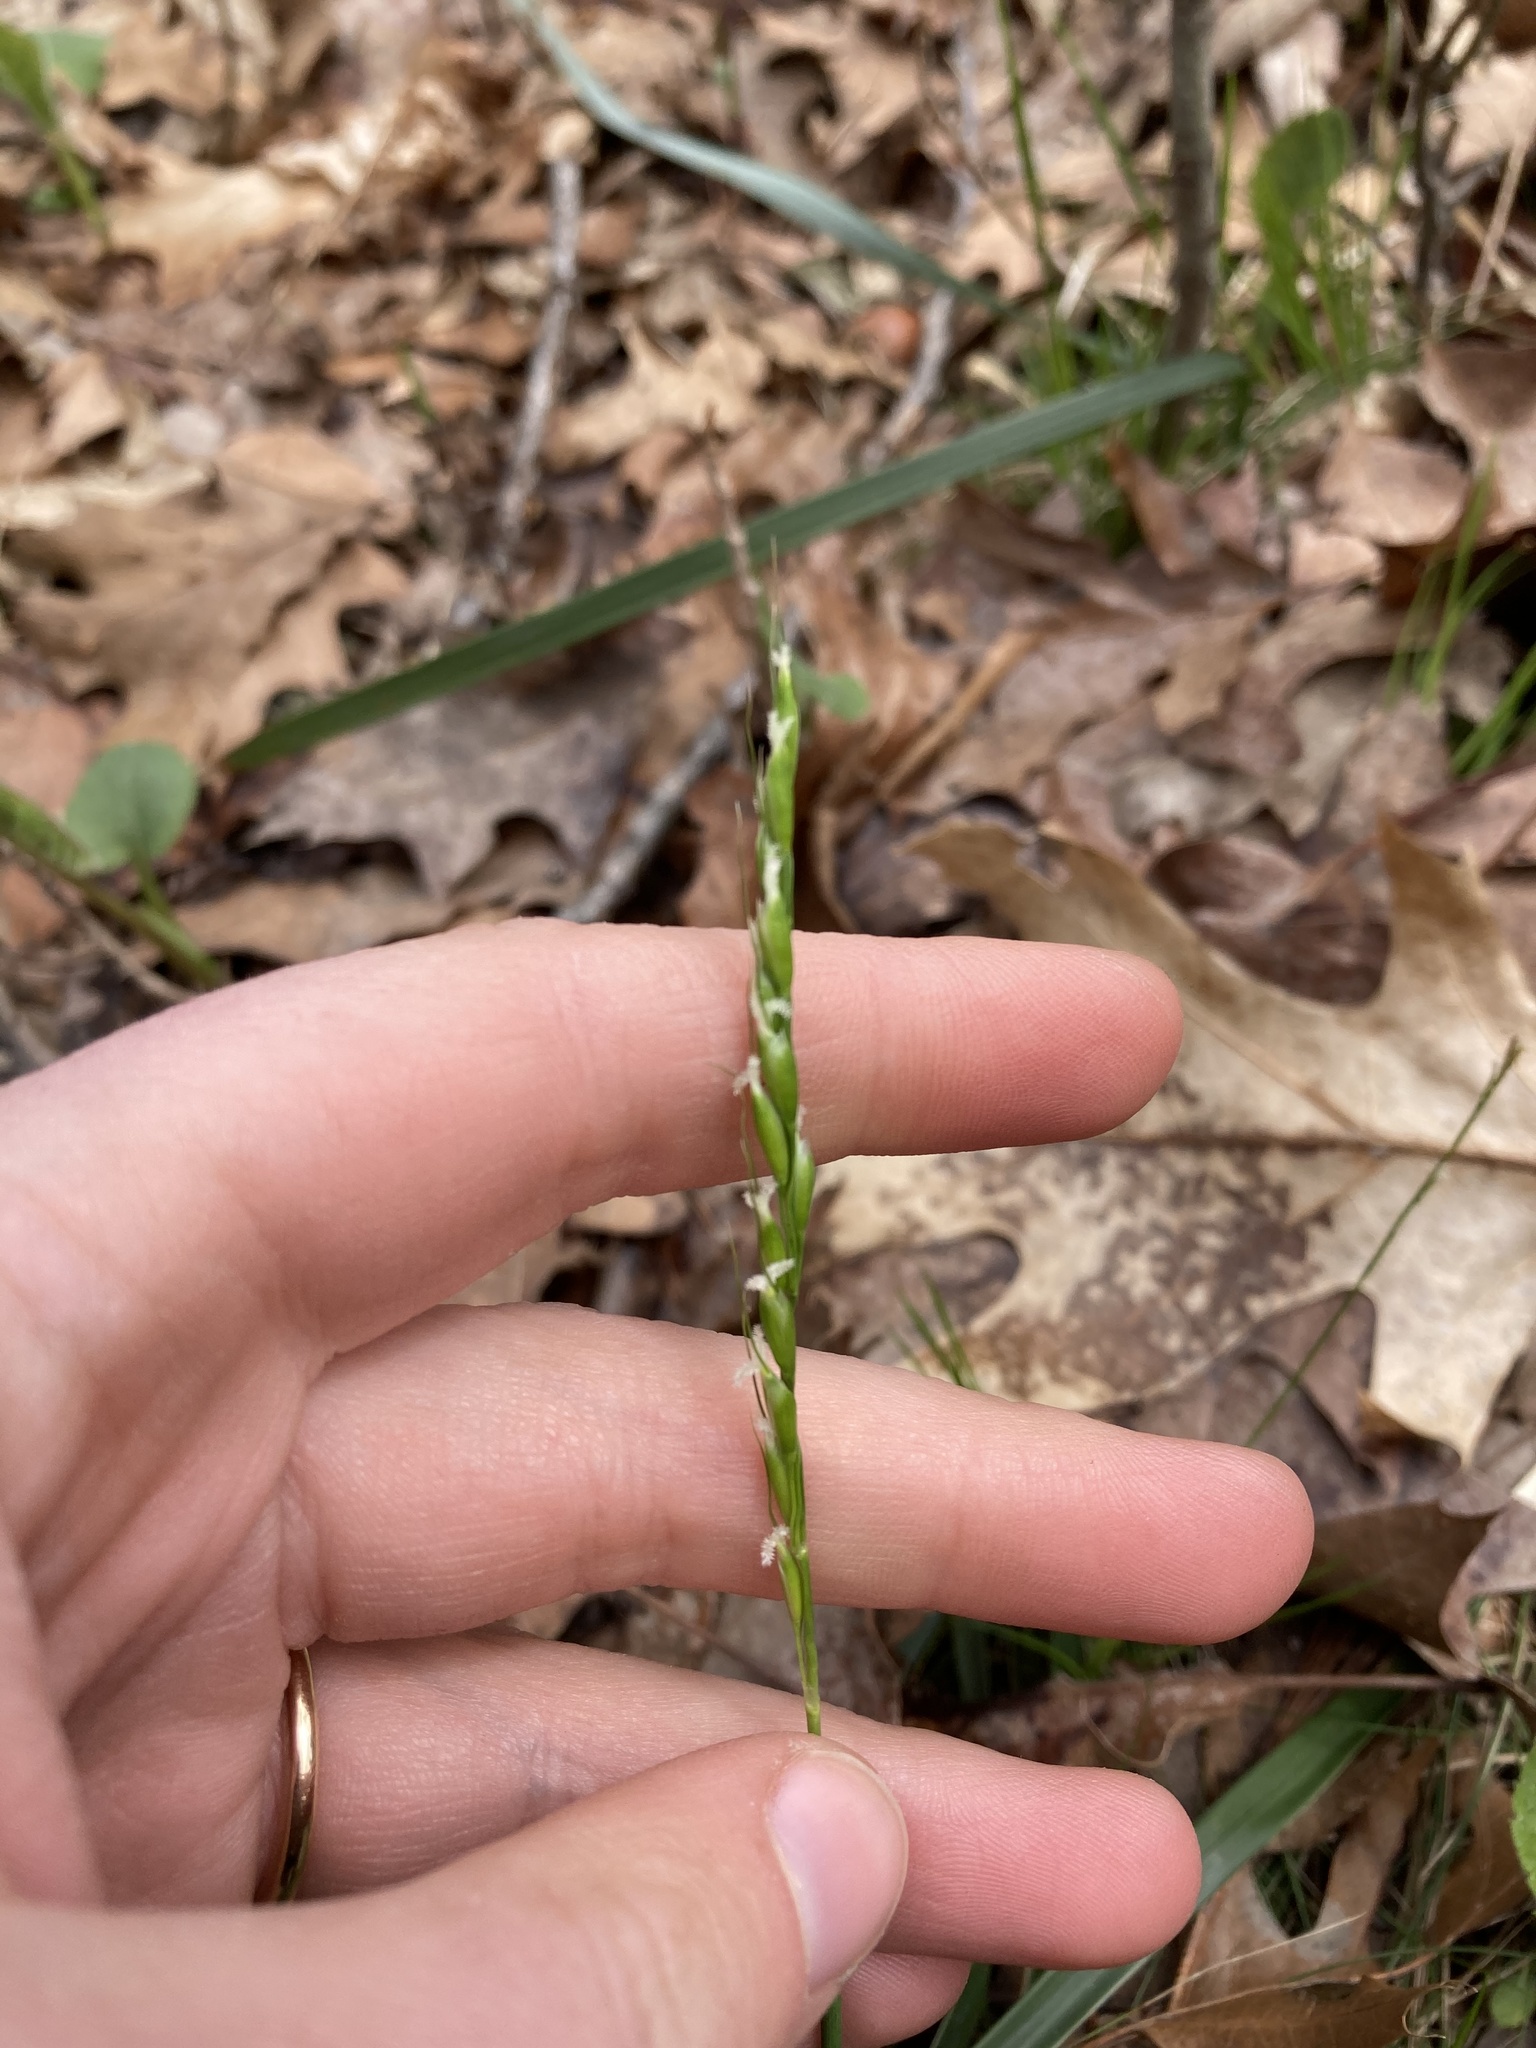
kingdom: Plantae
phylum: Tracheophyta
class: Liliopsida
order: Poales
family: Poaceae
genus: Oryzopsis
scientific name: Oryzopsis asperifolia
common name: Rough-leaved mountain rice
